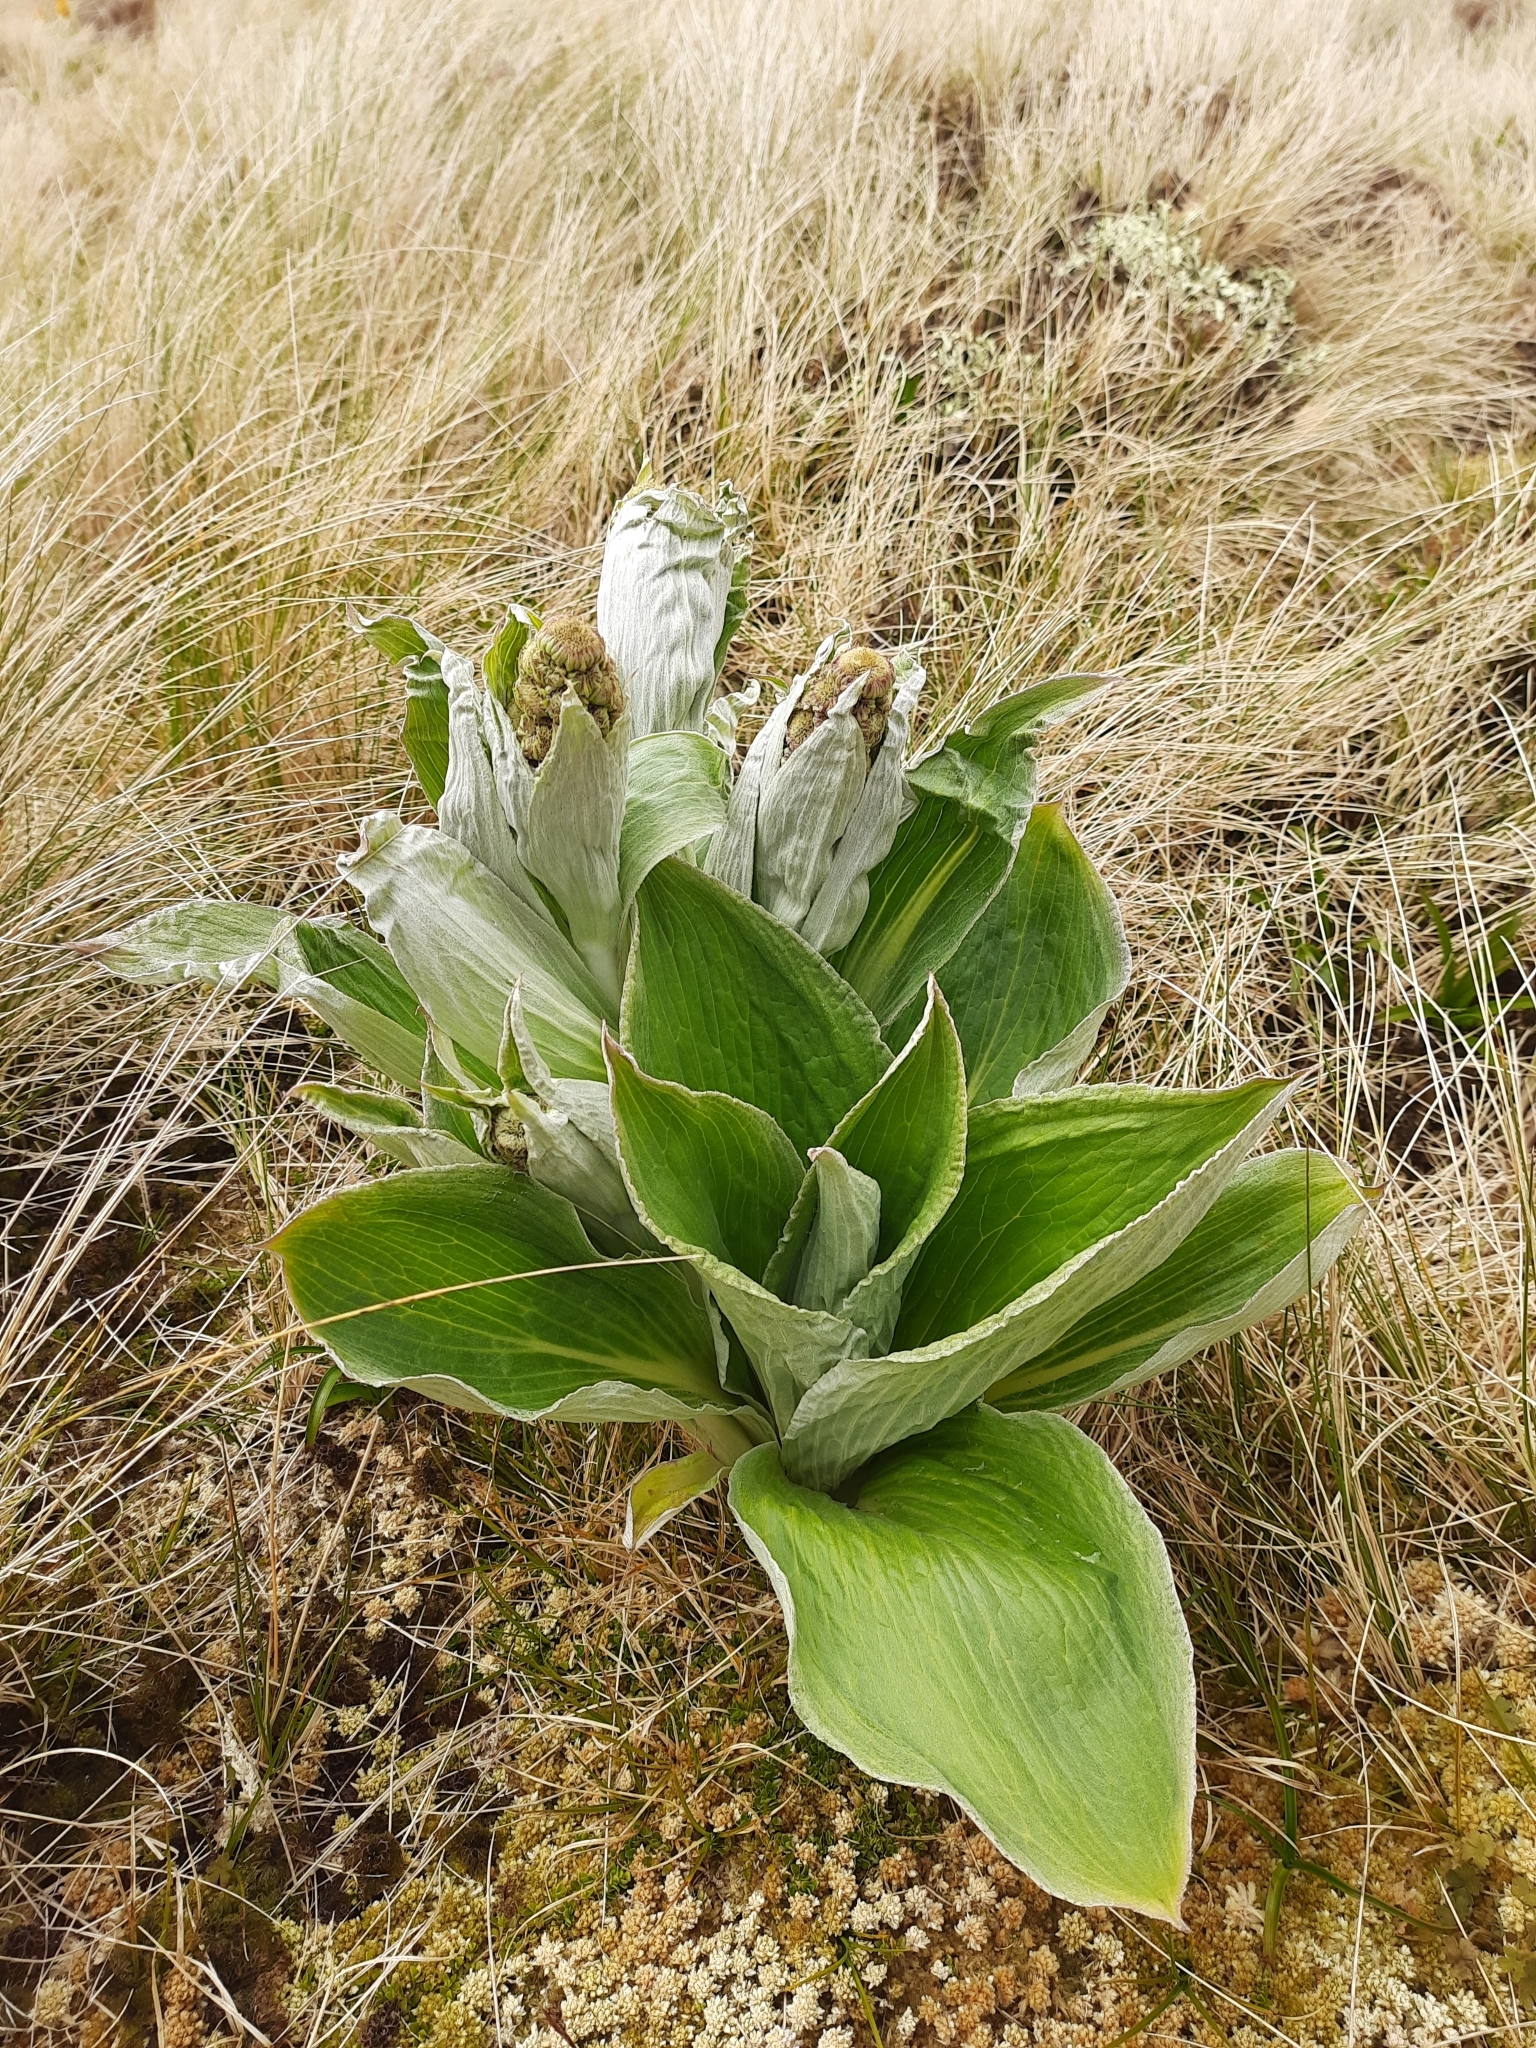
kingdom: Plantae
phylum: Tracheophyta
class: Magnoliopsida
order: Asterales
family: Asteraceae
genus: Pleurophyllum
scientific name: Pleurophyllum criniferum
